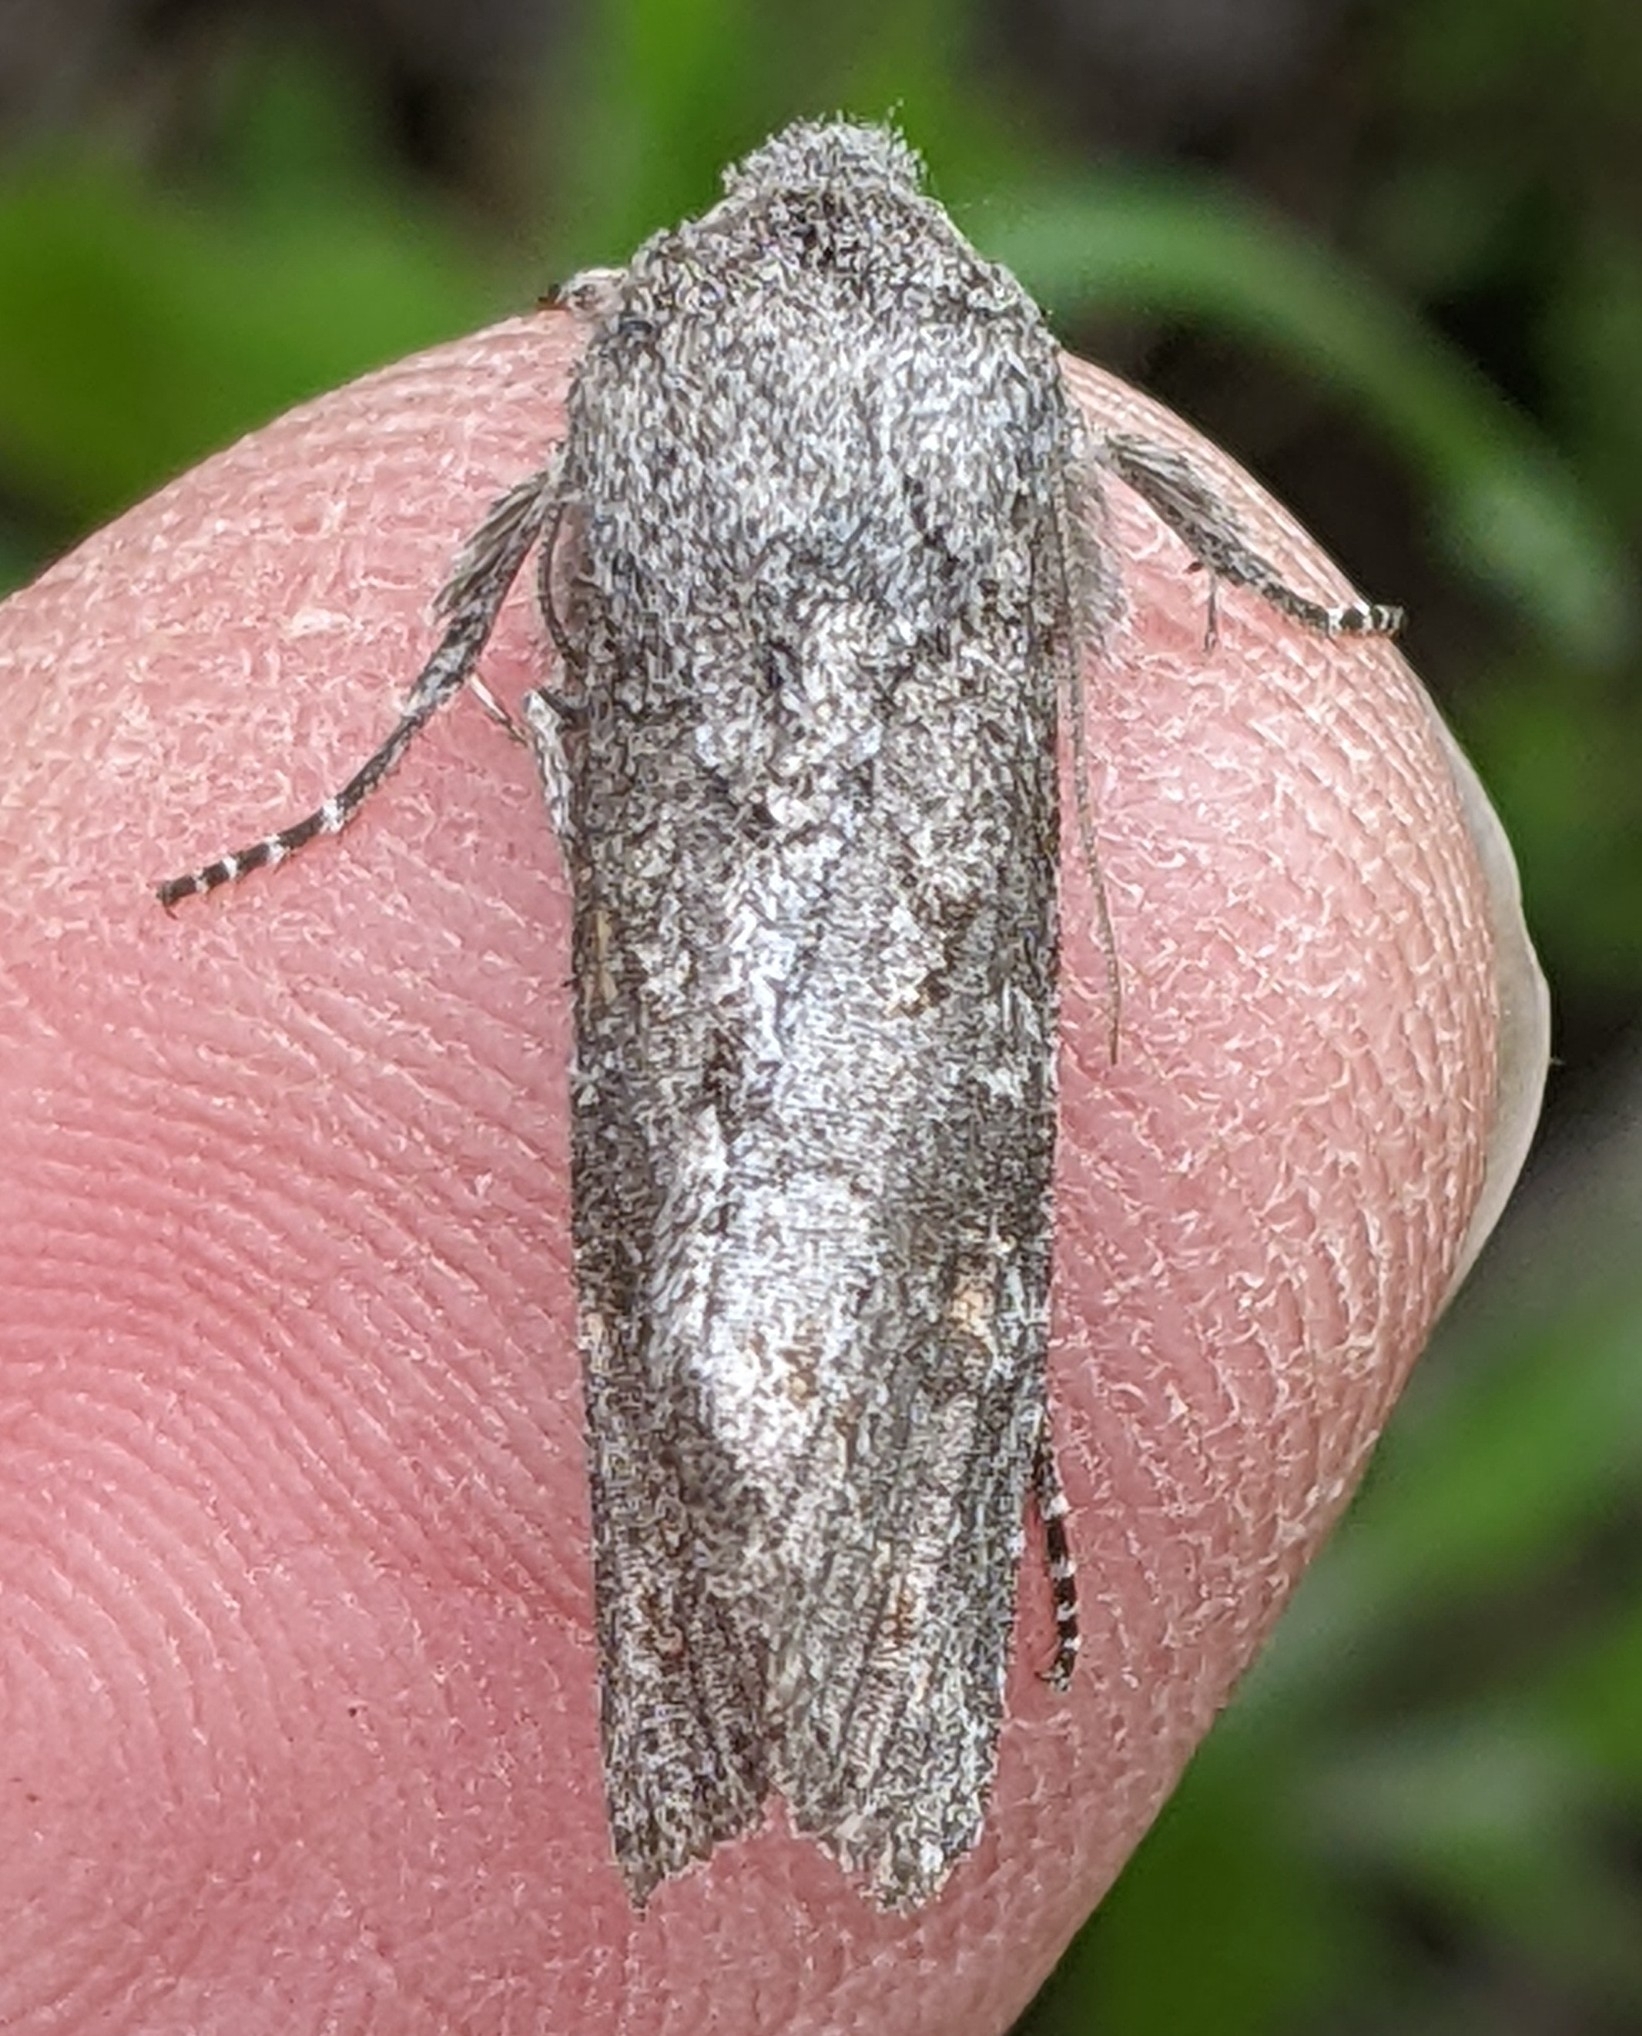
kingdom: Animalia
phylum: Arthropoda
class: Insecta
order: Lepidoptera
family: Noctuidae
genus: Egira
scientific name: Egira curialis
